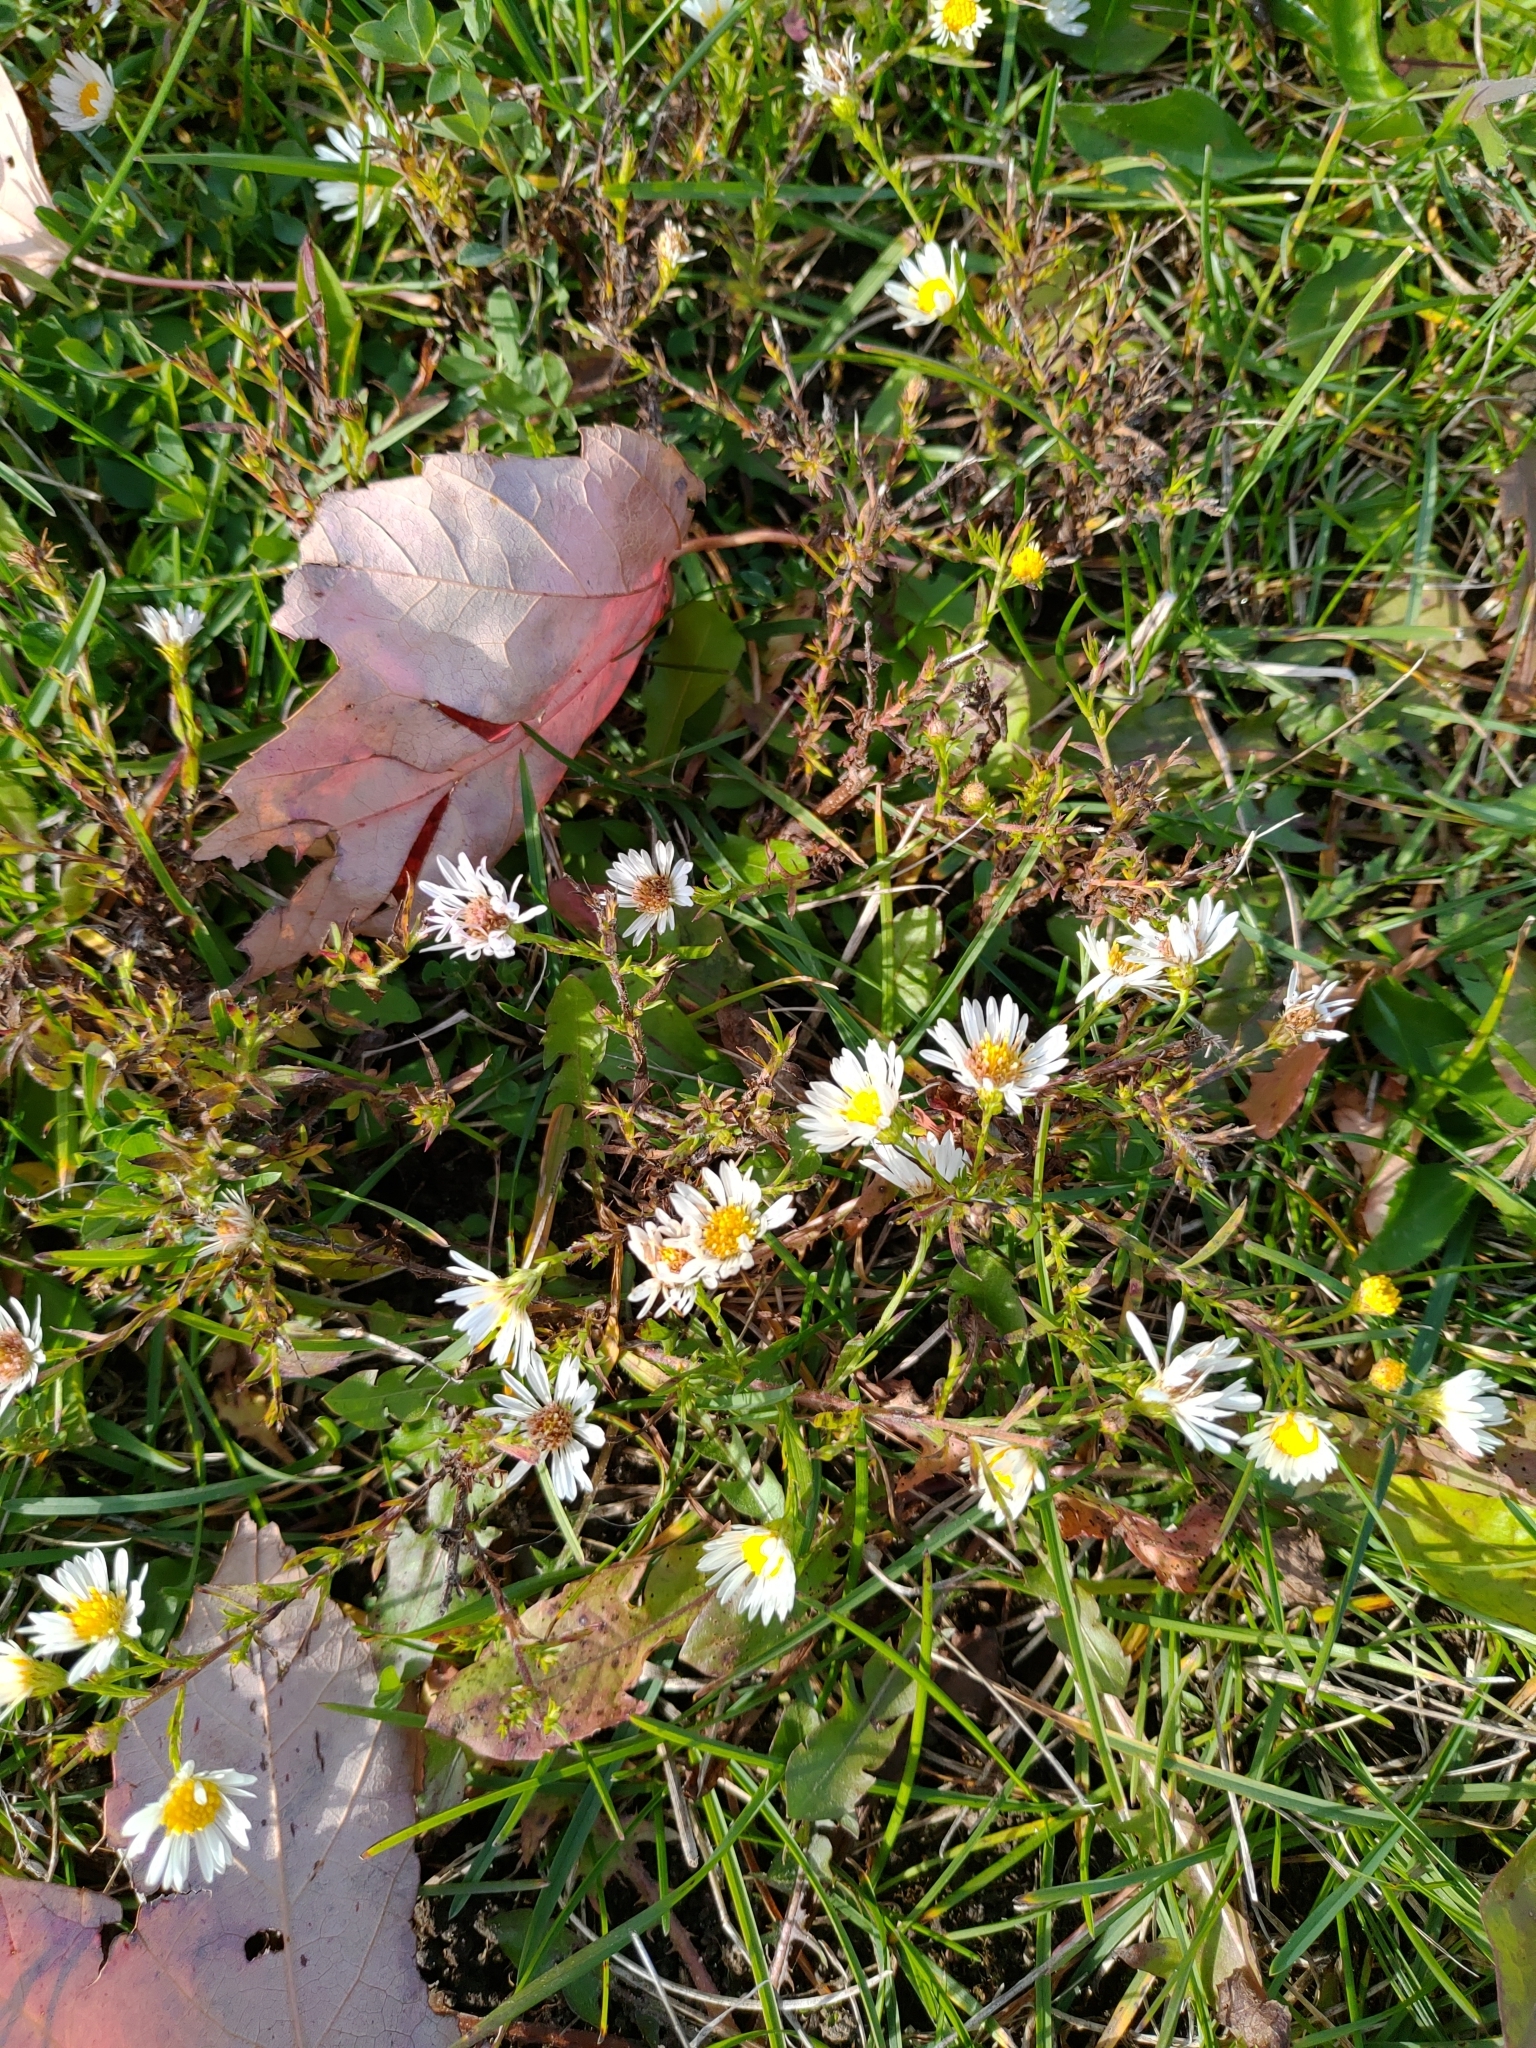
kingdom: Plantae
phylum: Tracheophyta
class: Magnoliopsida
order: Asterales
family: Asteraceae
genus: Symphyotrichum
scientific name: Symphyotrichum pilosum
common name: Awl aster
